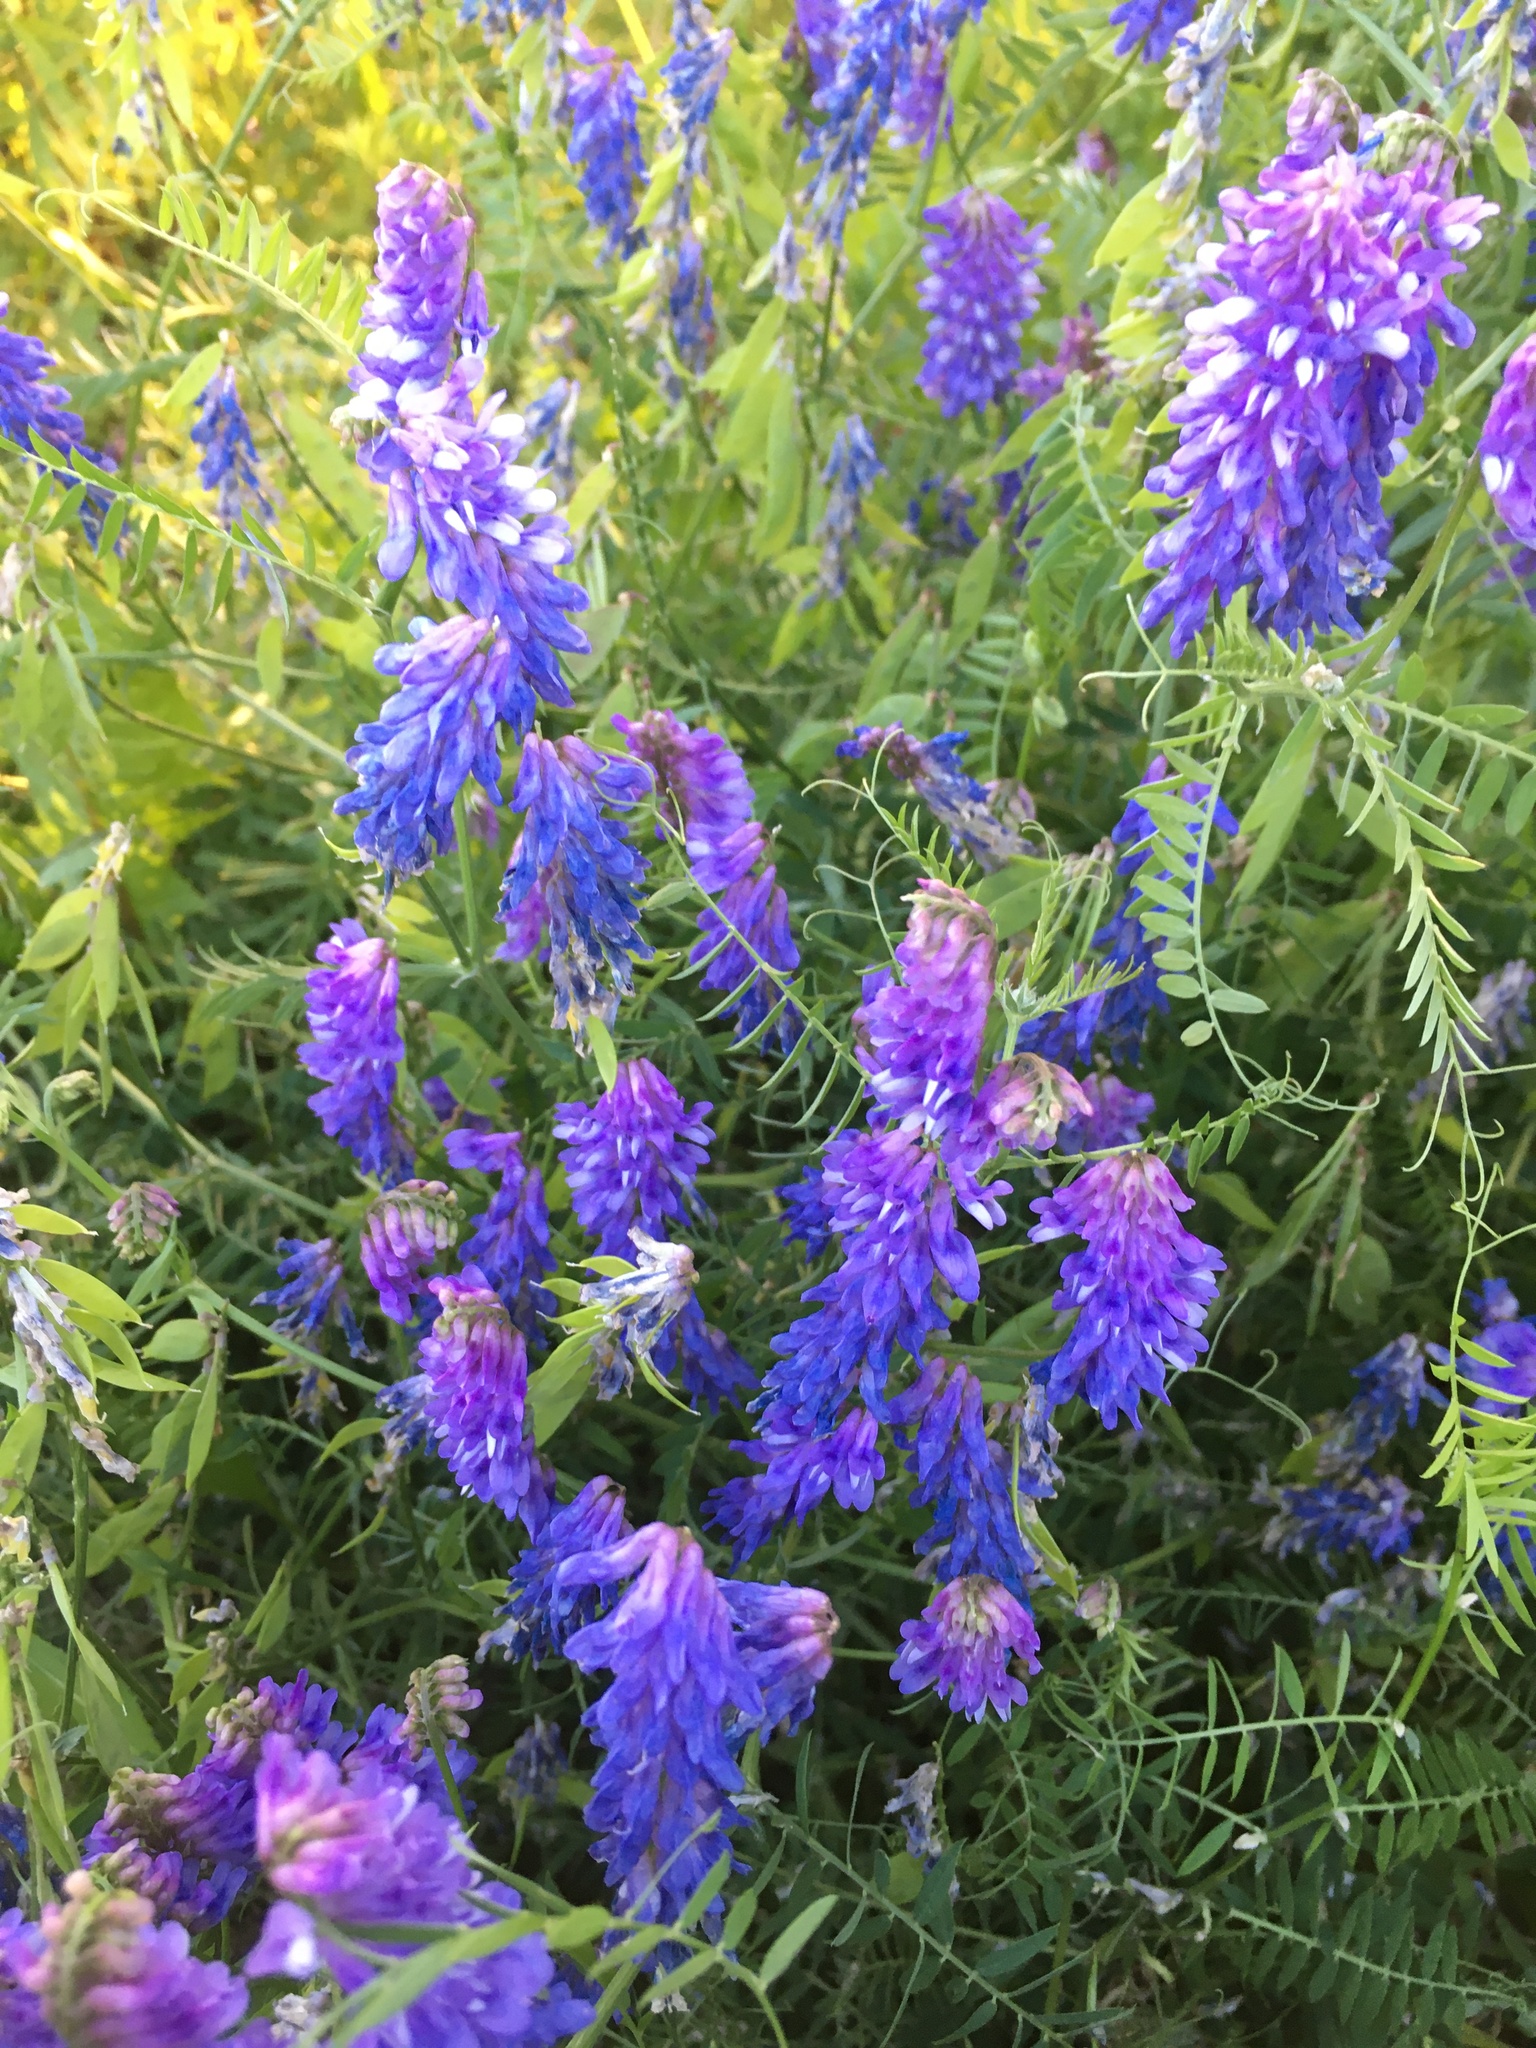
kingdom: Plantae
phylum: Tracheophyta
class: Magnoliopsida
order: Fabales
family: Fabaceae
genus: Vicia
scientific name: Vicia cracca
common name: Bird vetch
